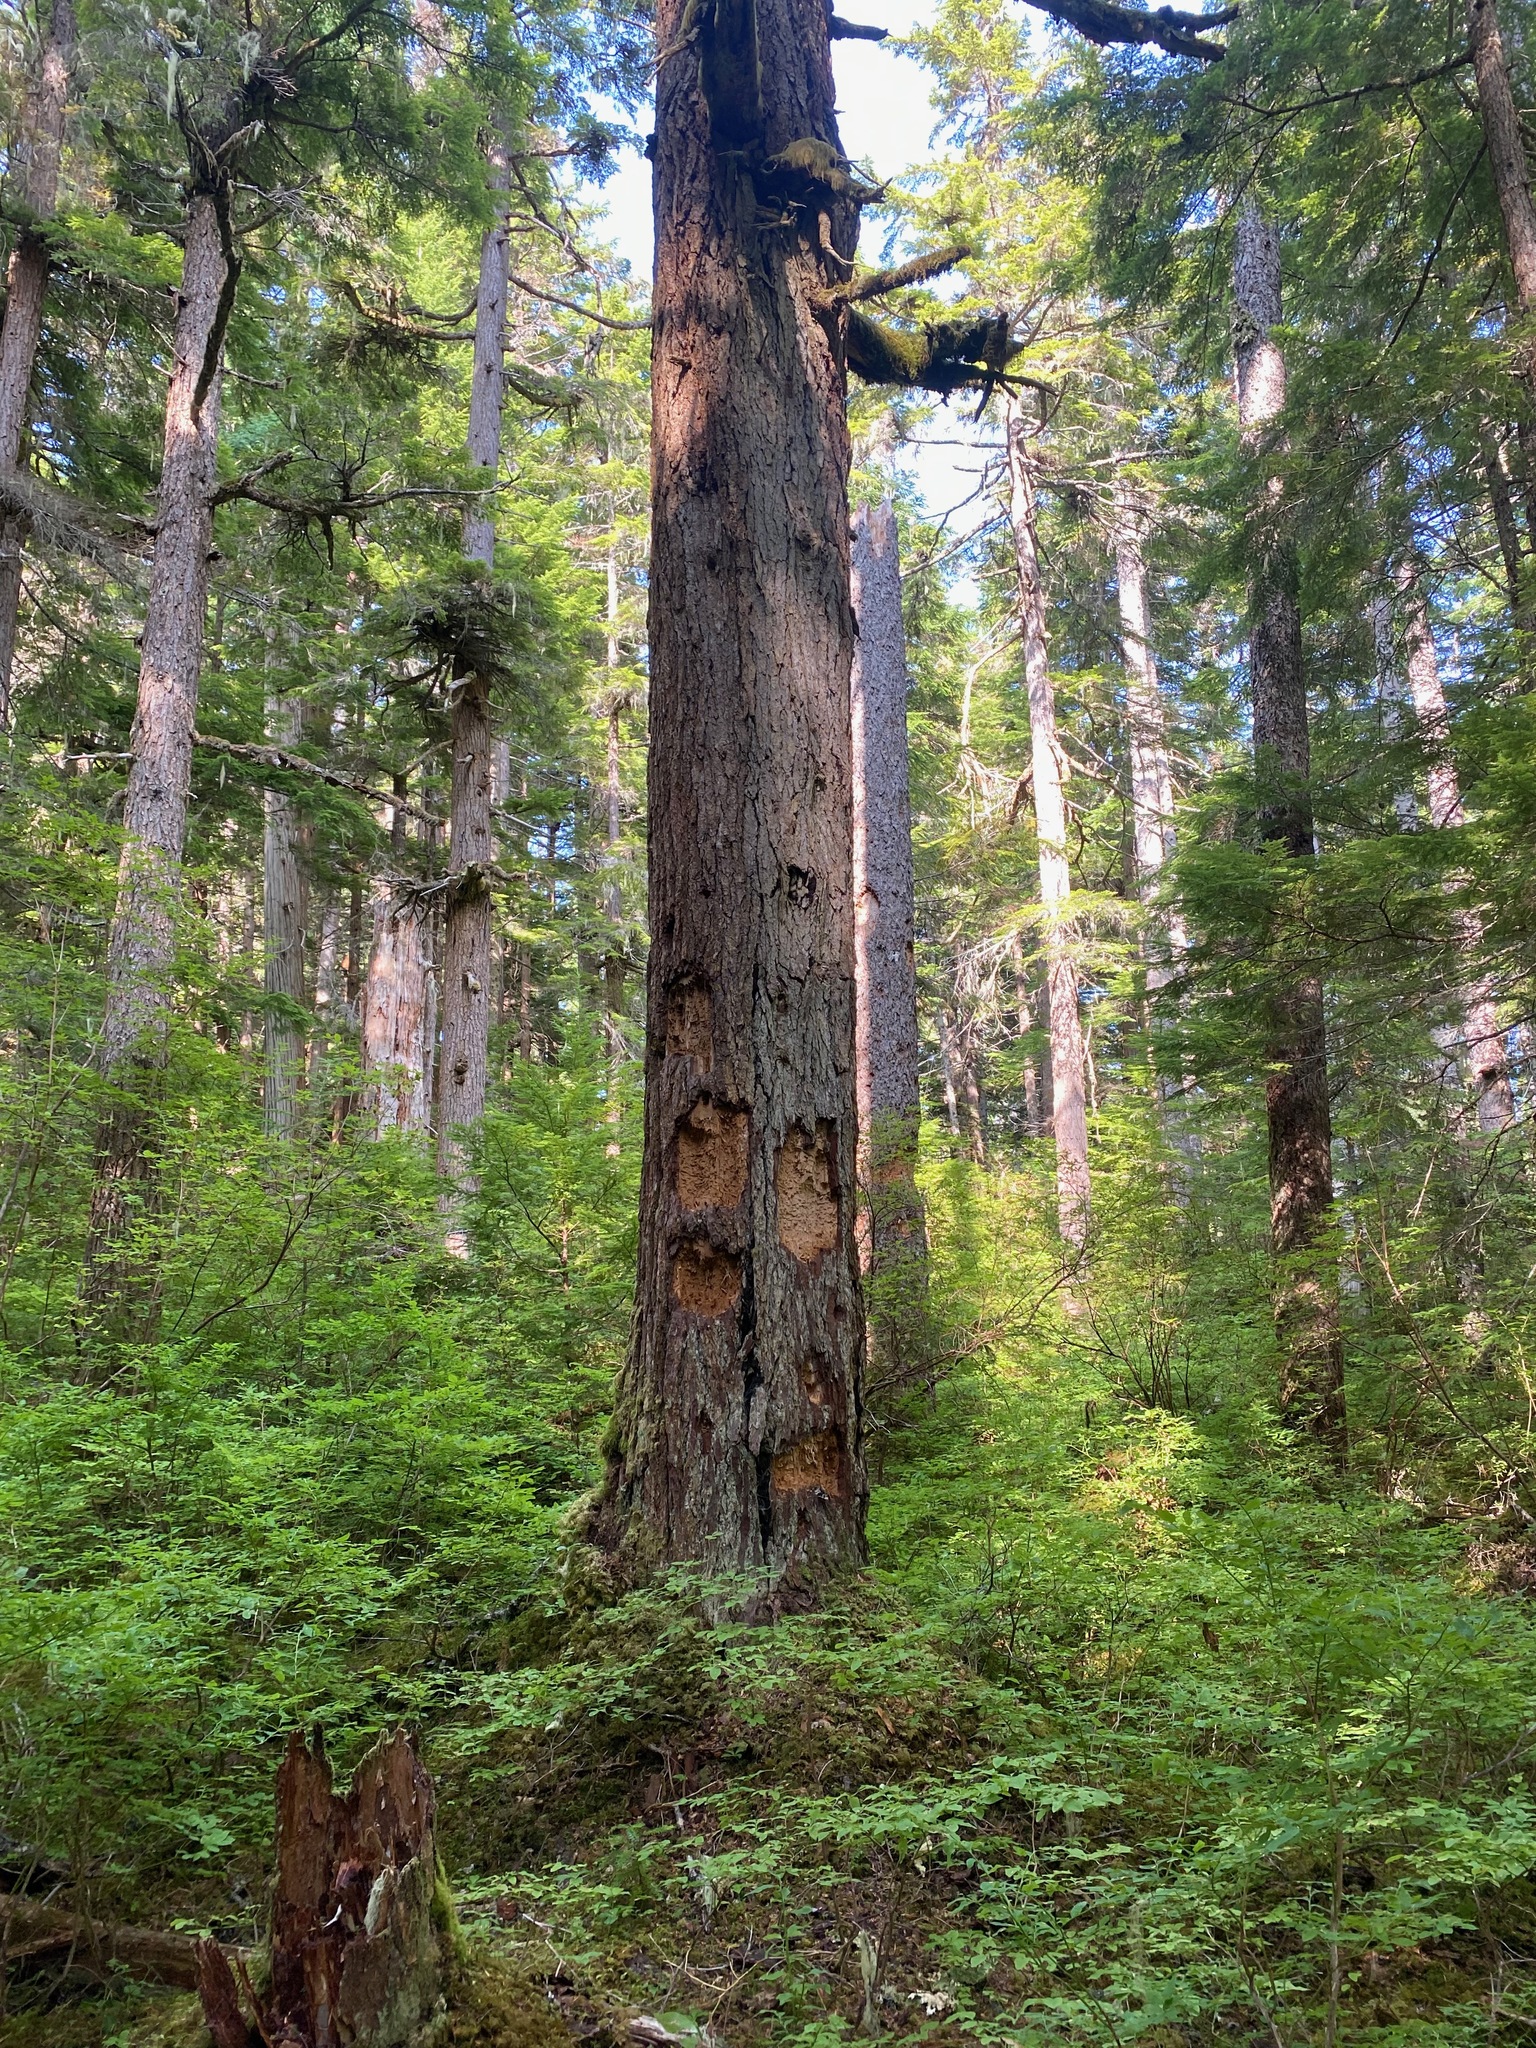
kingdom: Animalia
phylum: Chordata
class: Aves
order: Piciformes
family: Picidae
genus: Dryocopus
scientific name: Dryocopus pileatus
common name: Pileated woodpecker
